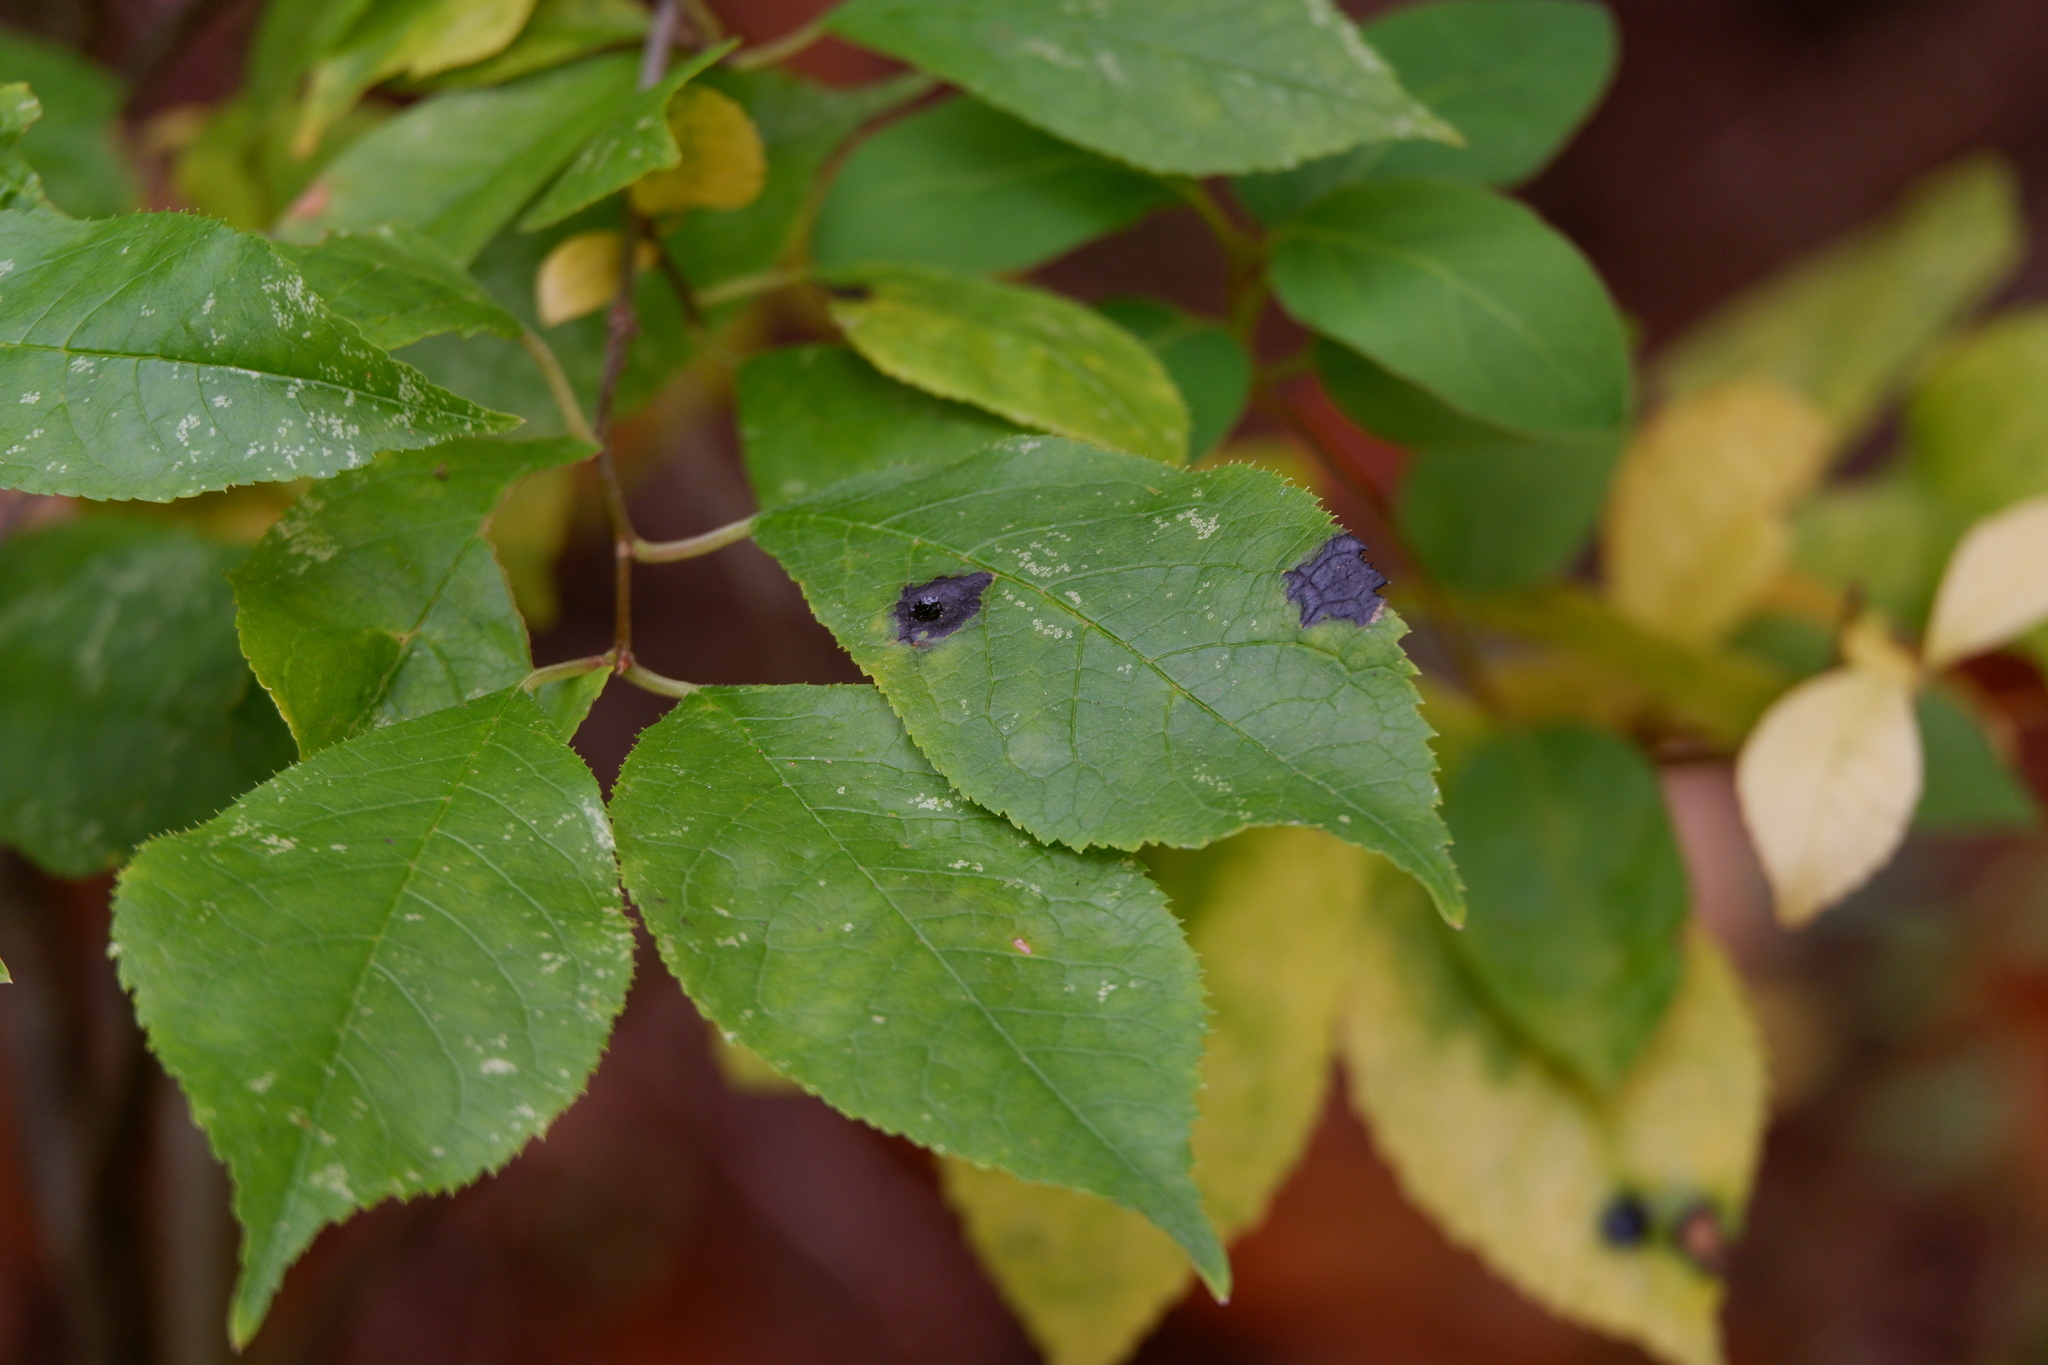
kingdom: Fungi
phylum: Ascomycota
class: Leotiomycetes
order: Rhytismatales
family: Rhytismataceae
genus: Rhytisma
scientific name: Rhytisma prini
